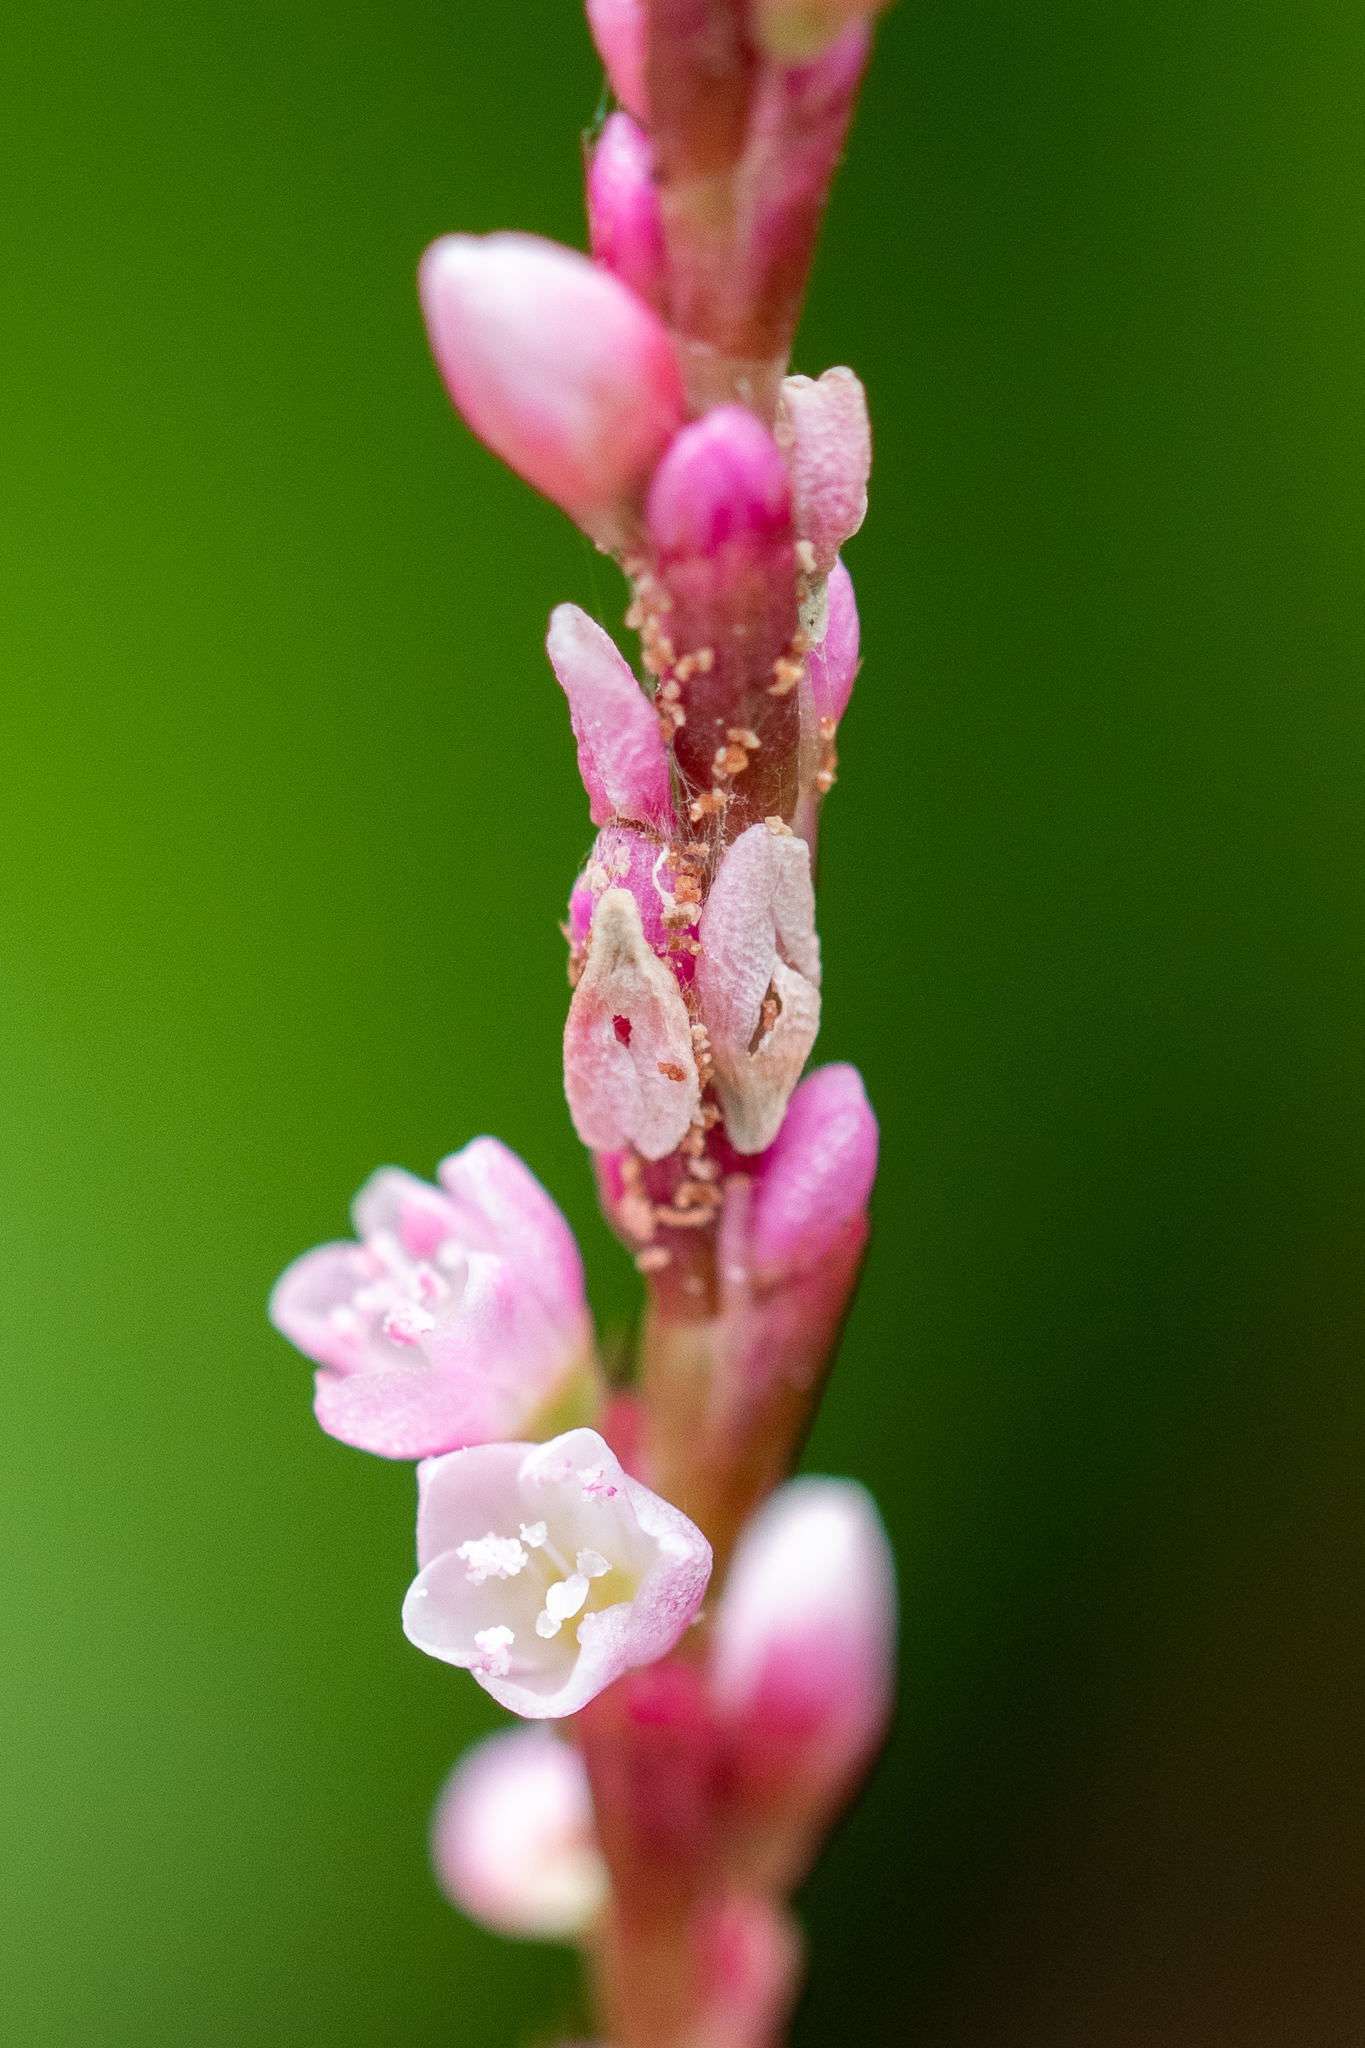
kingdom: Plantae
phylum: Tracheophyta
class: Magnoliopsida
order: Caryophyllales
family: Polygonaceae
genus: Persicaria
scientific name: Persicaria decipiens
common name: Willow-weed
